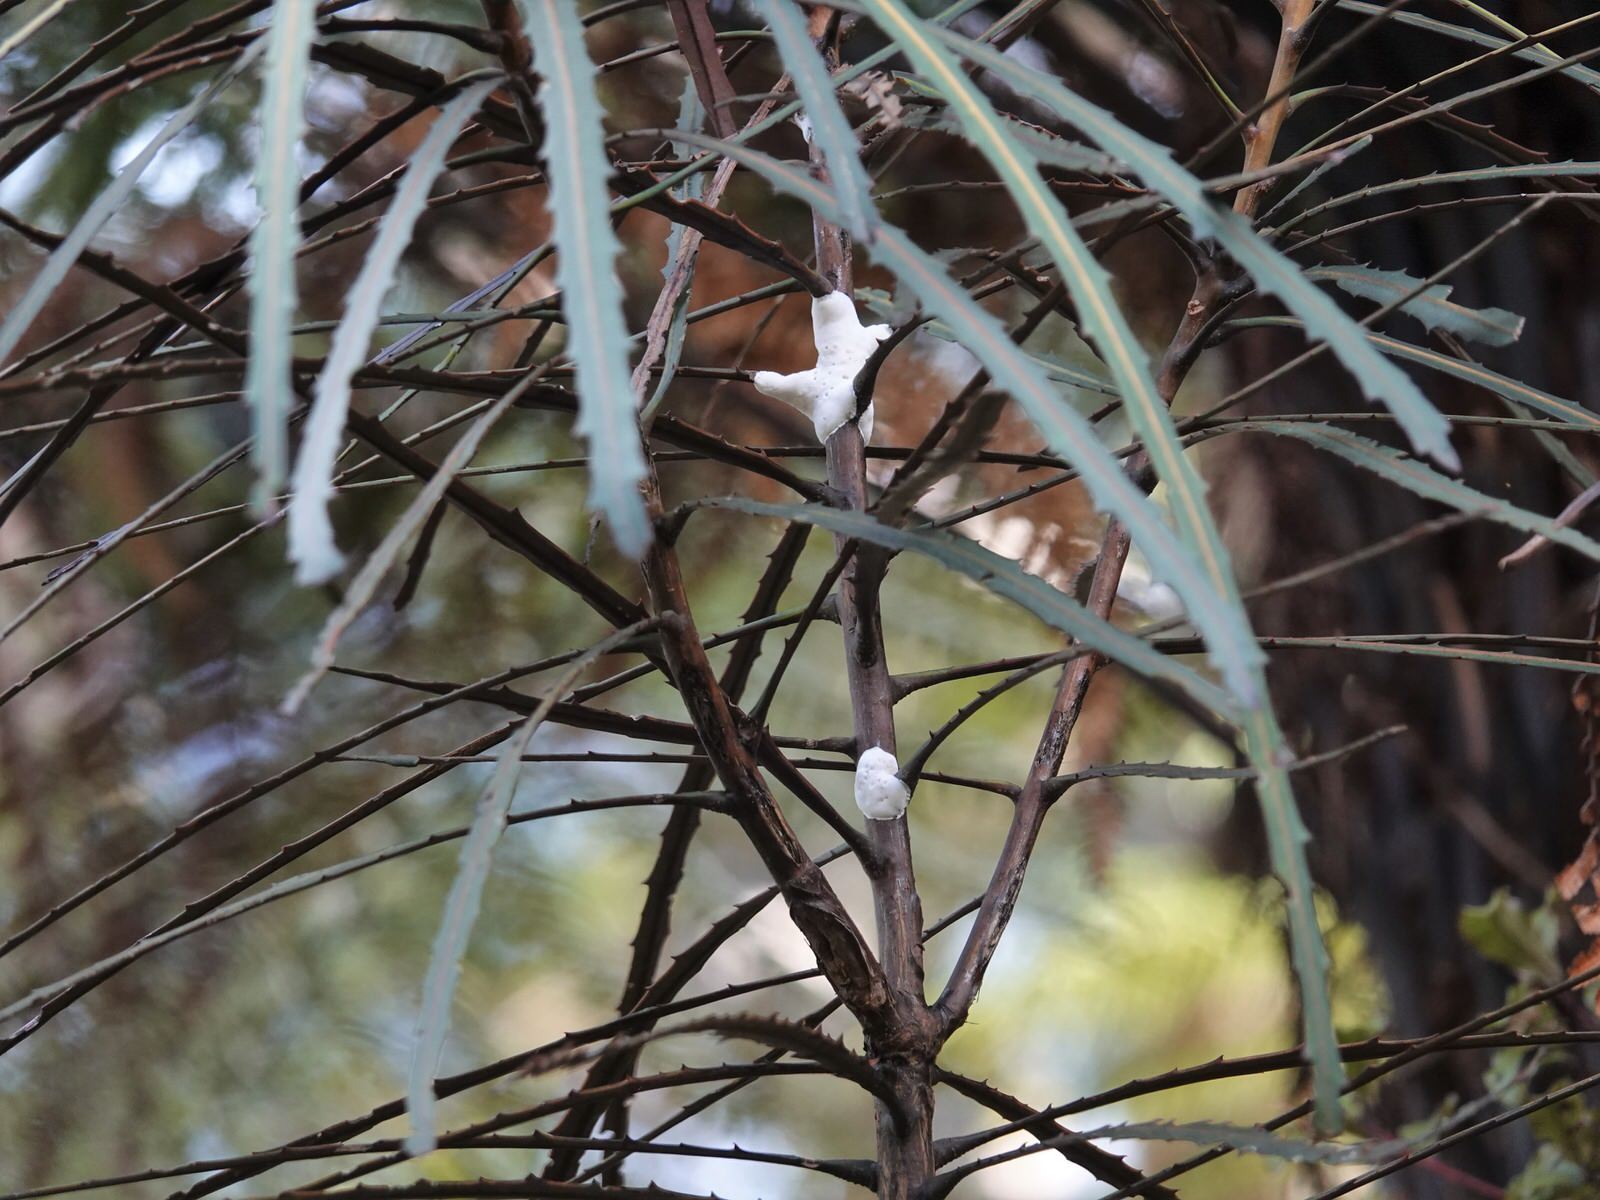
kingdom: Fungi
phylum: Basidiomycota
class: Pucciniomycetes
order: Septobasidiales
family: Septobasidiaceae
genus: Septobasidium
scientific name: Septobasidium simmondsii
